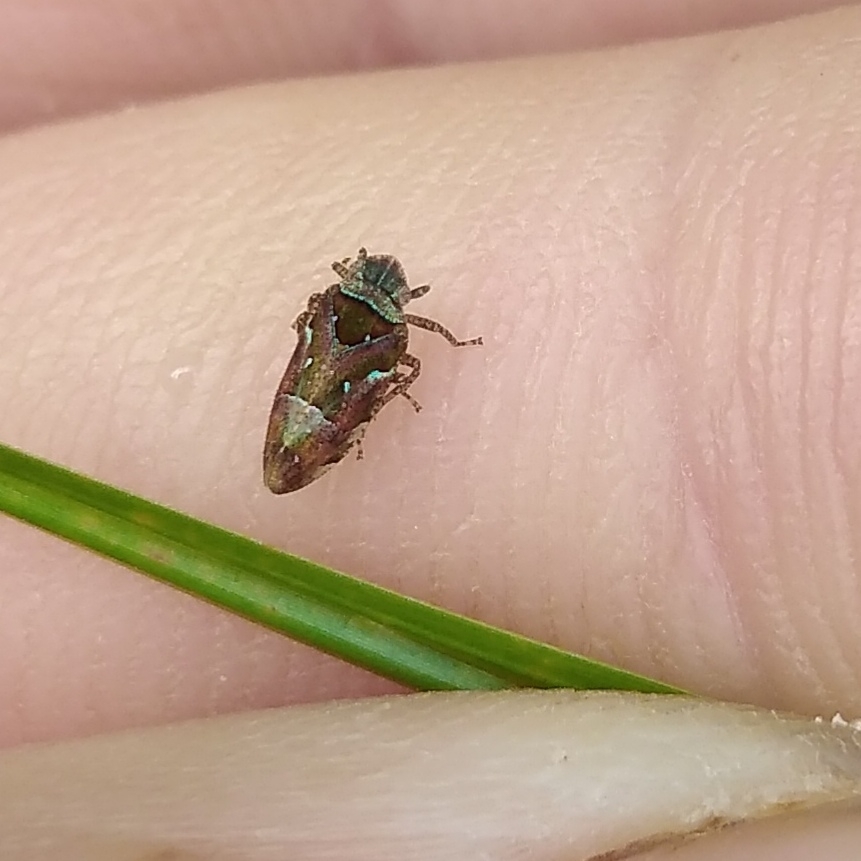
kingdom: Animalia
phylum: Arthropoda
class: Insecta
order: Hemiptera
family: Tettigometridae
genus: Nototettigometra
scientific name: Nototettigometra patruelis
